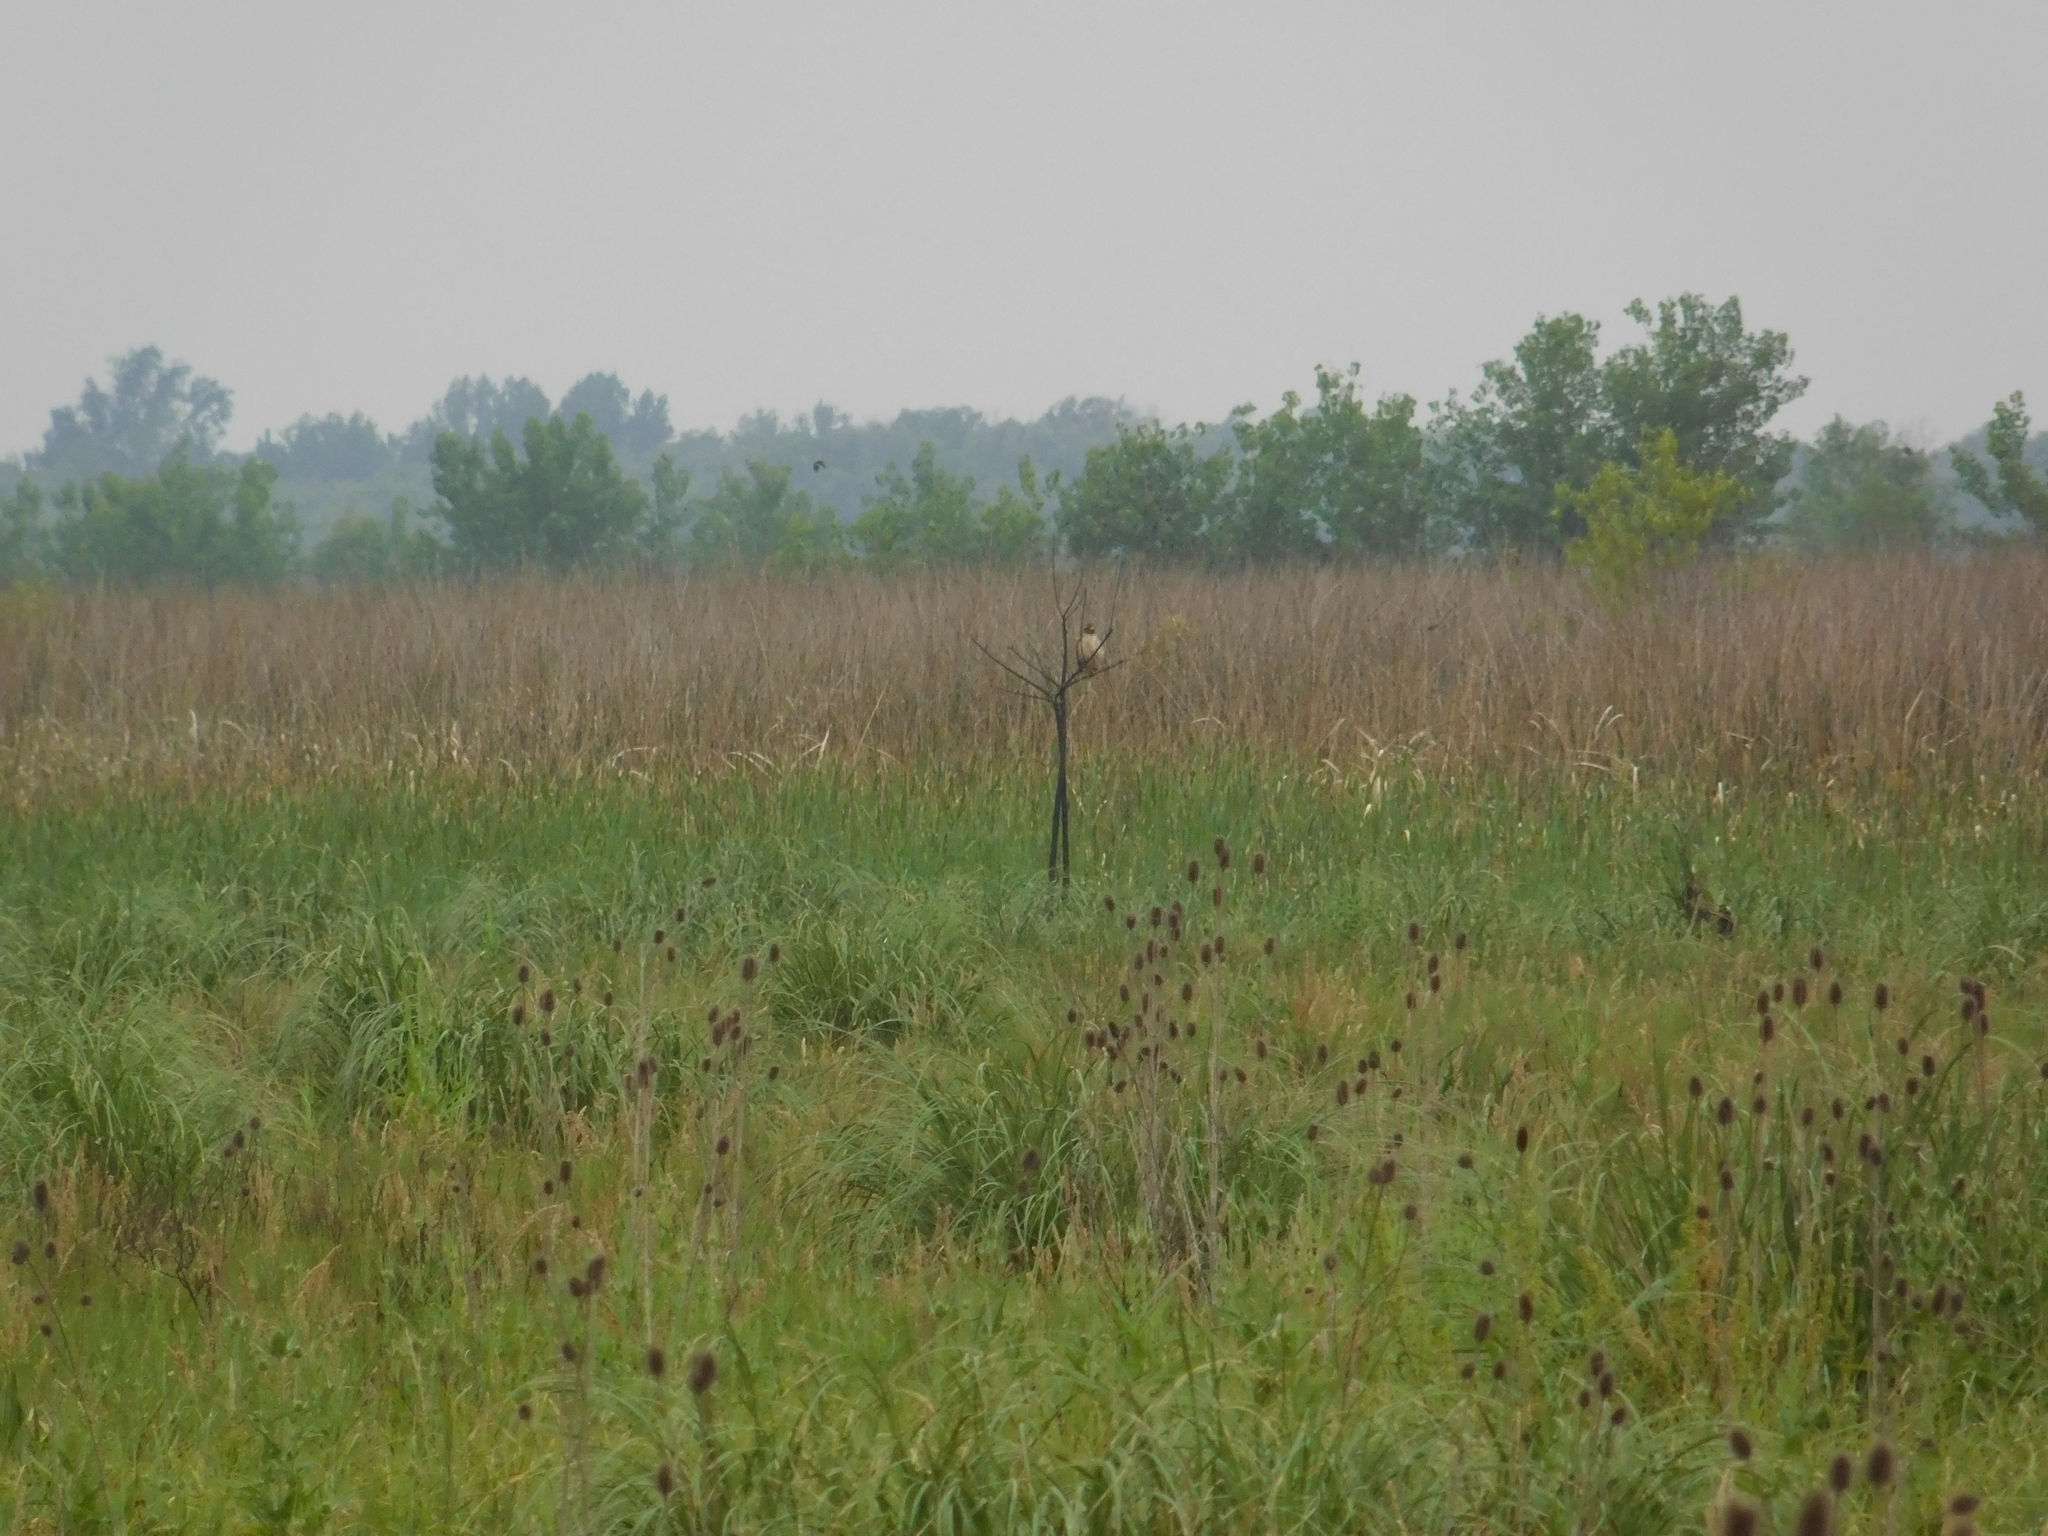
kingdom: Animalia
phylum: Chordata
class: Aves
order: Accipitriformes
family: Accipitridae
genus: Rupornis
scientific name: Rupornis magnirostris
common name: Roadside hawk
